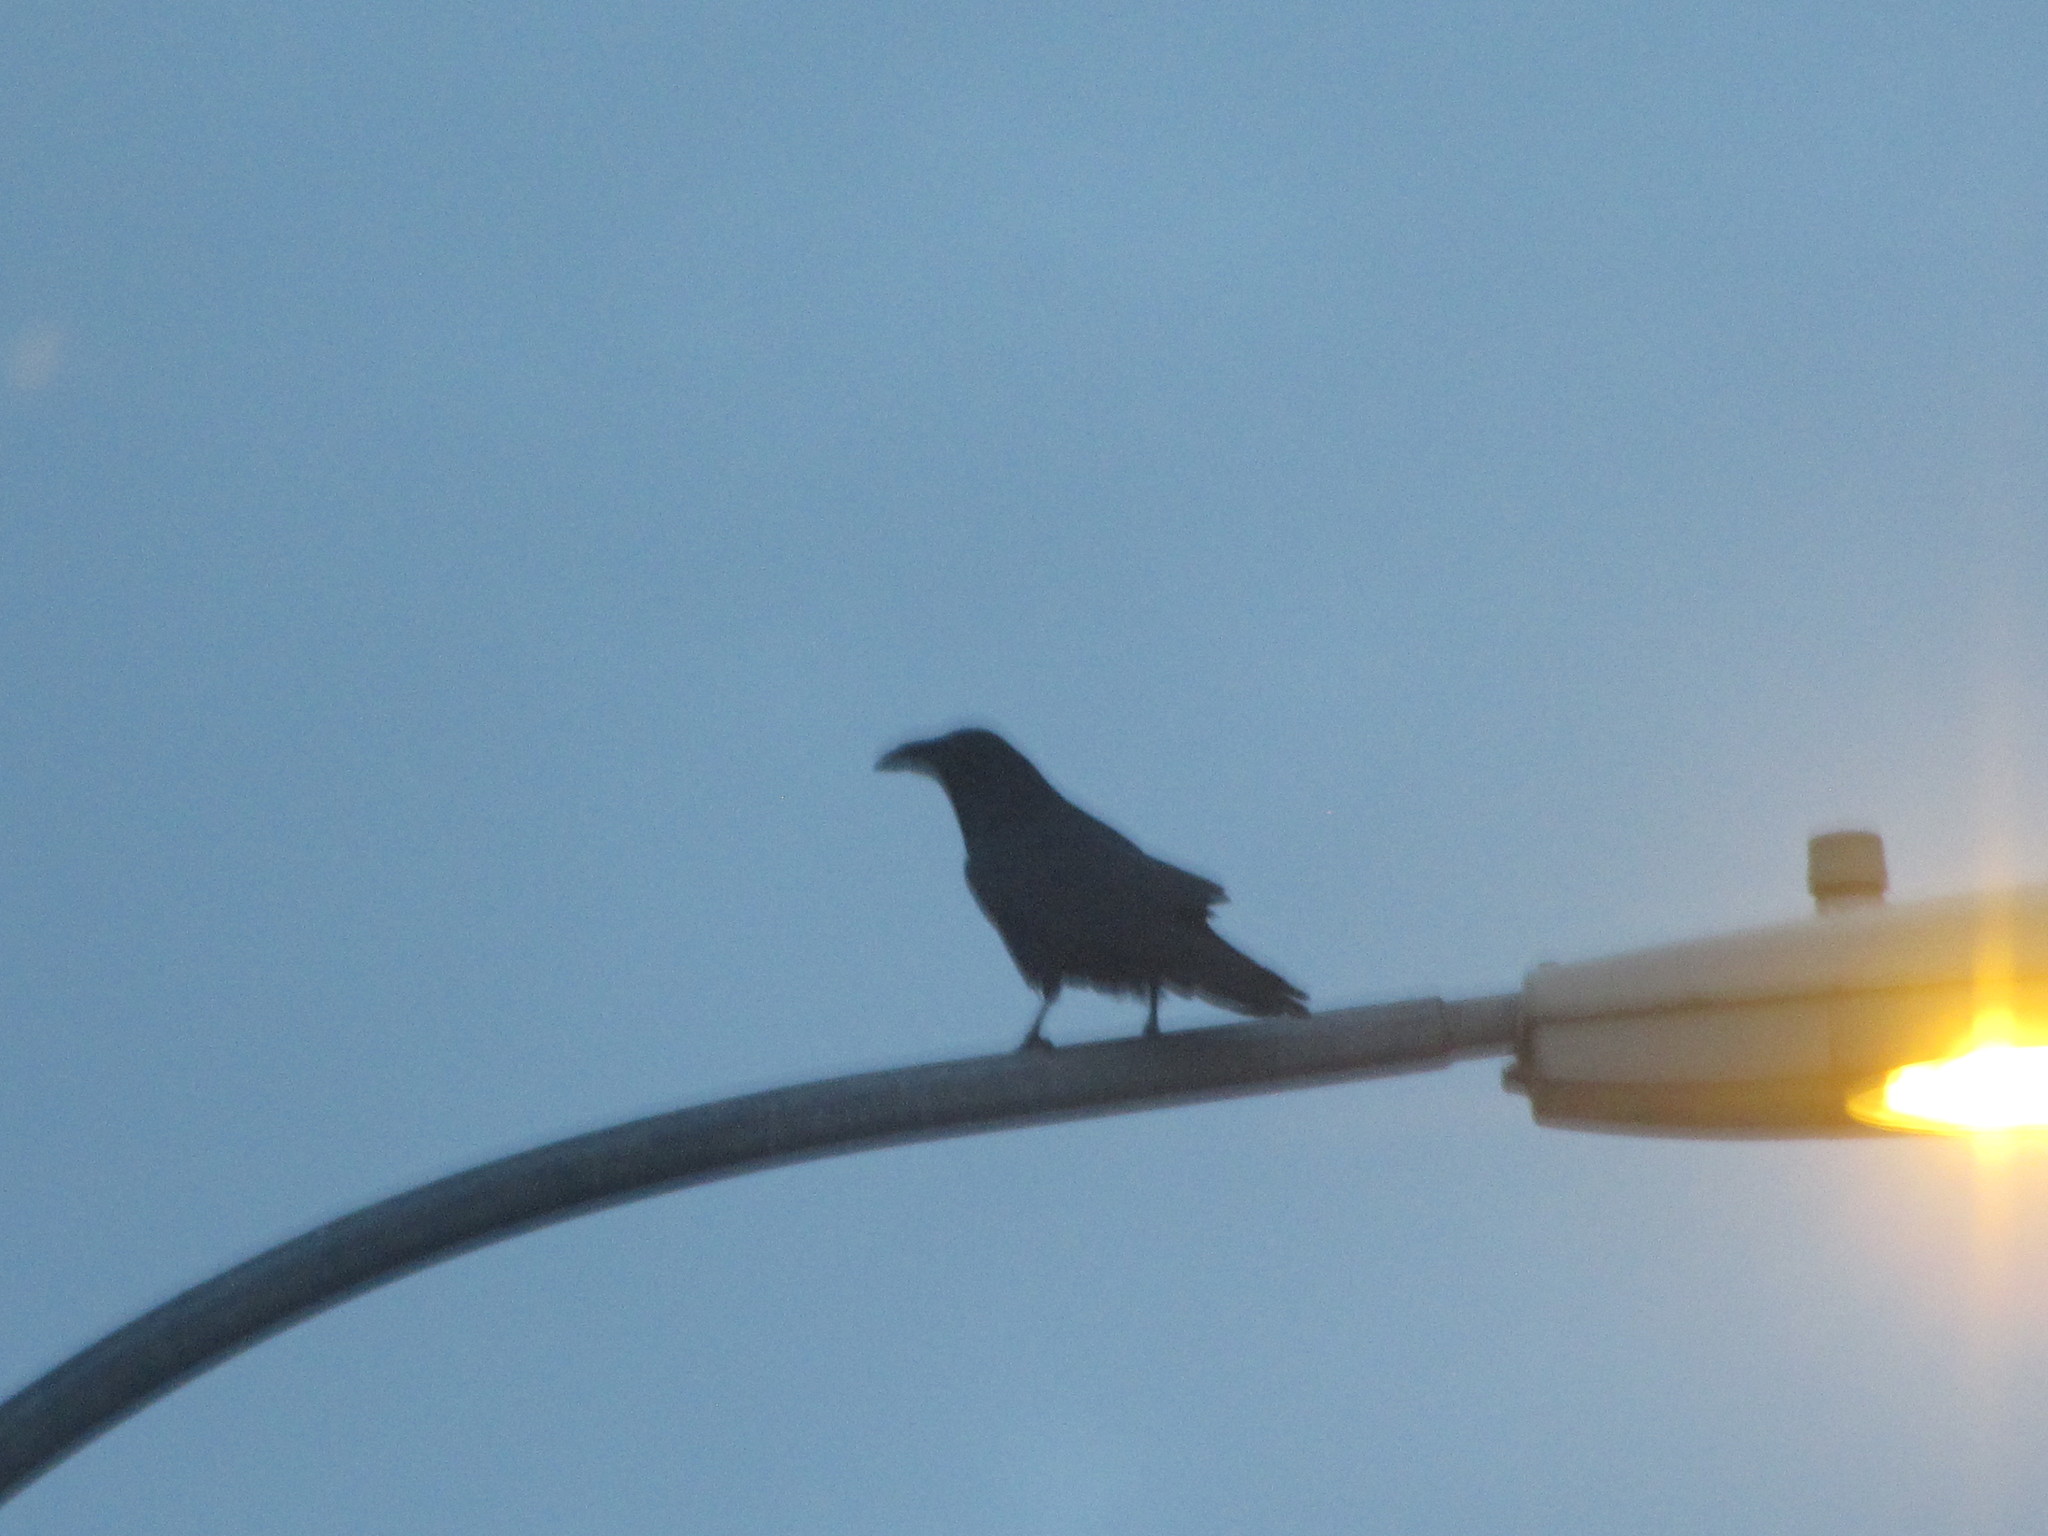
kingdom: Animalia
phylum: Chordata
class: Aves
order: Passeriformes
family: Corvidae
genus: Corvus
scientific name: Corvus corax
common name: Common raven
